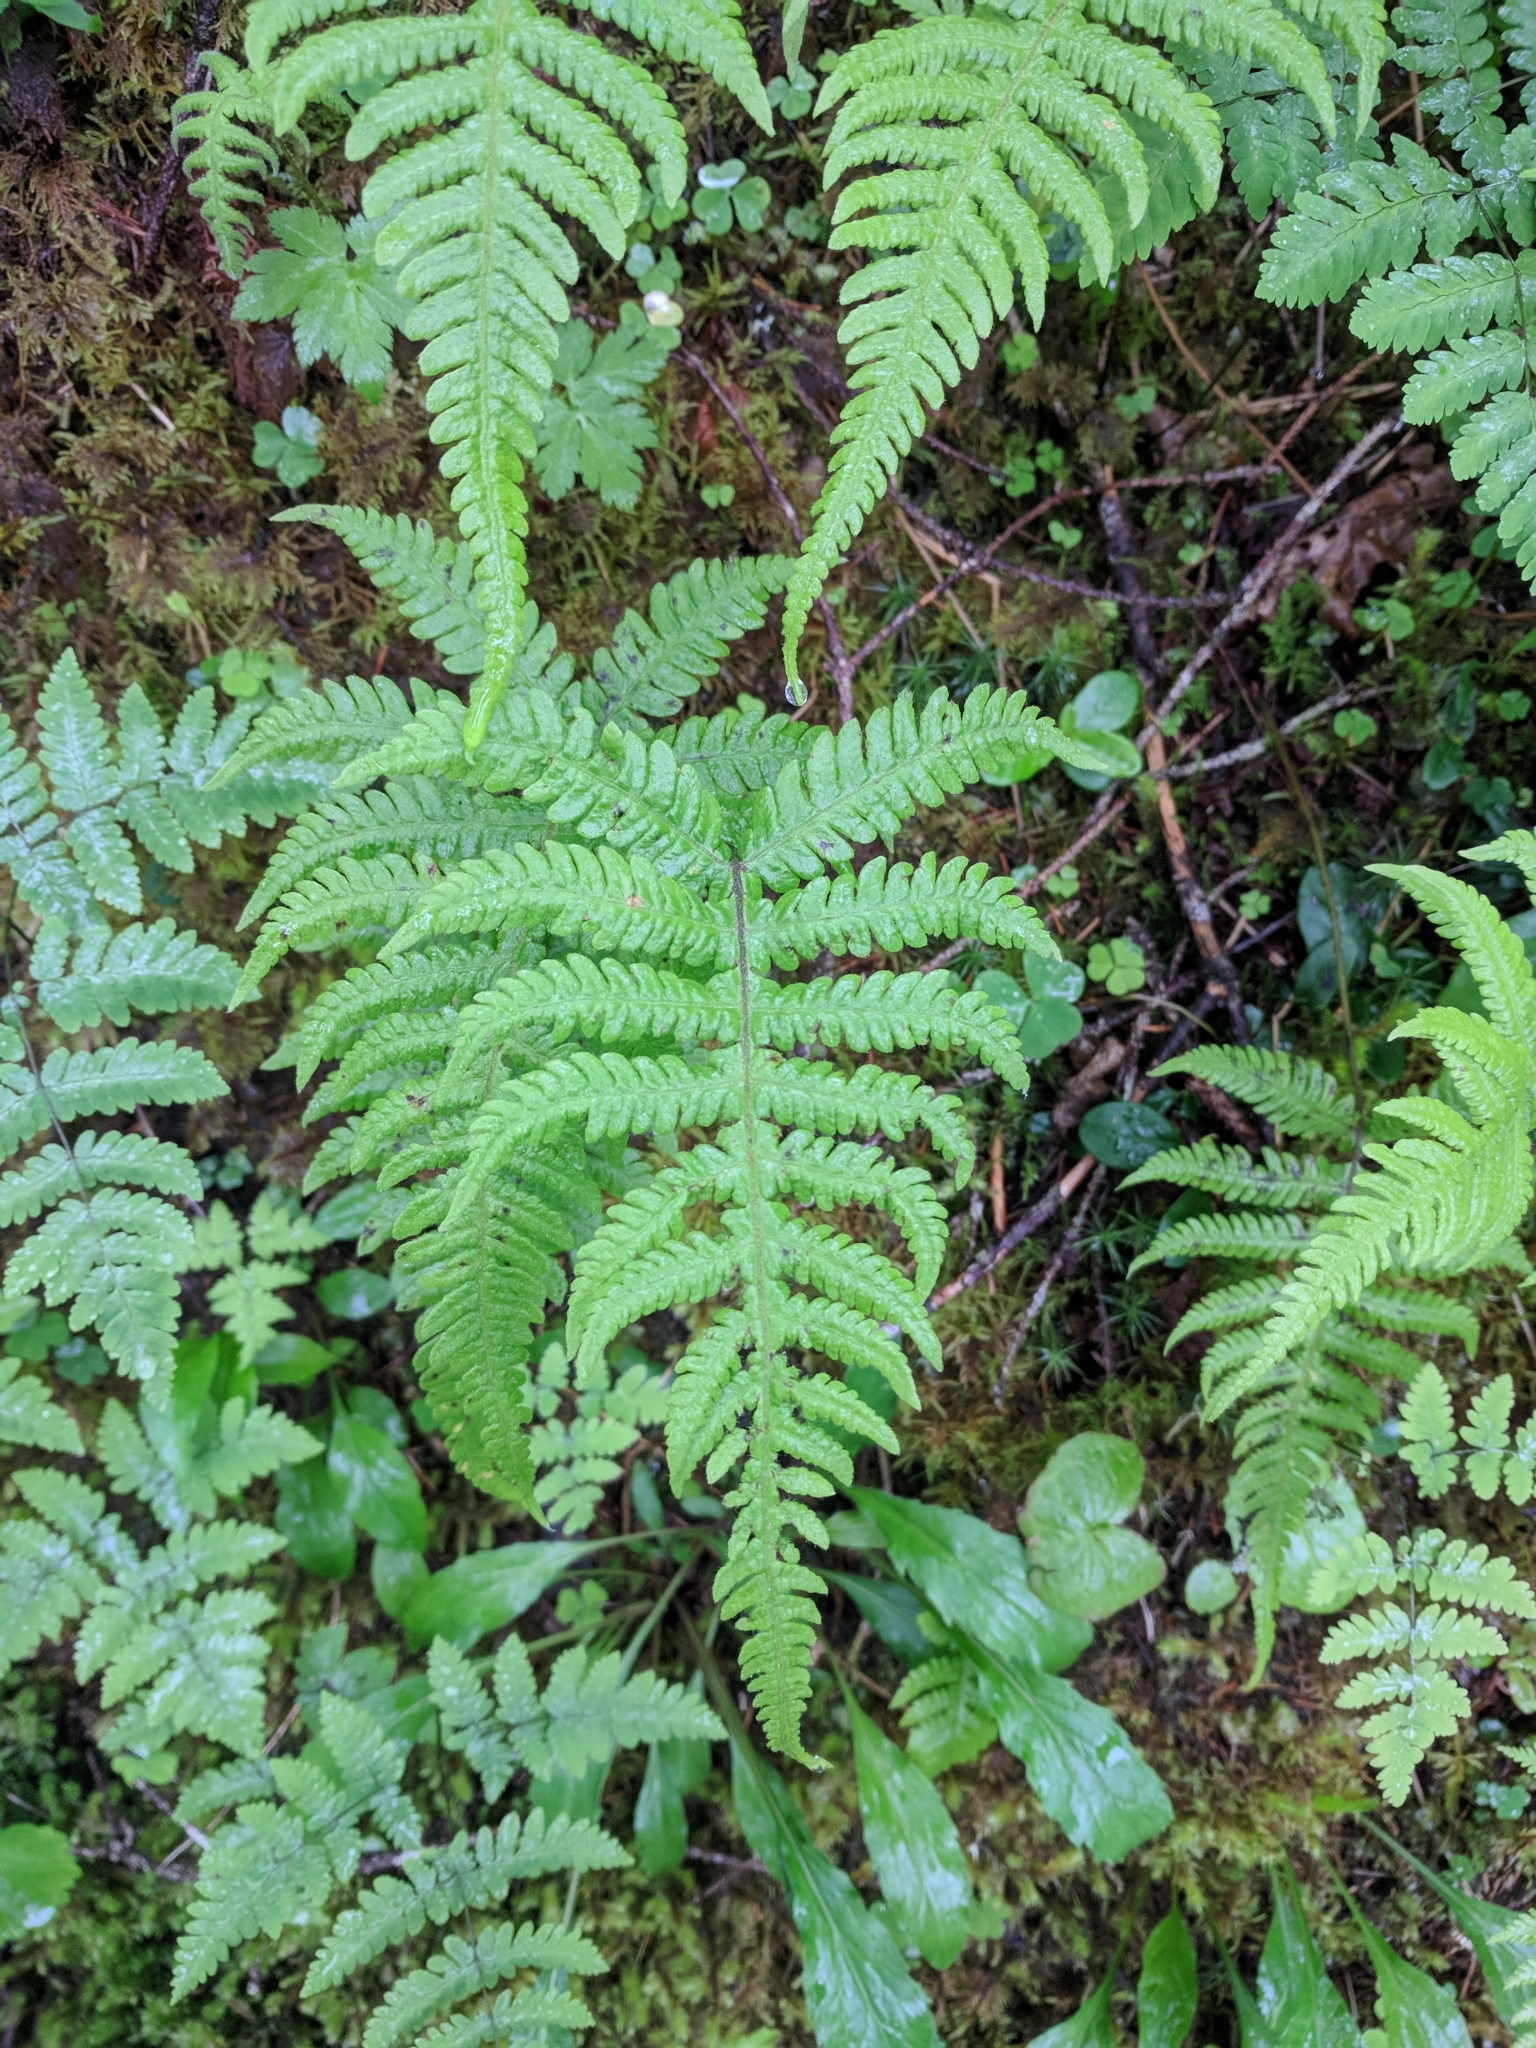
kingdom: Plantae
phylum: Tracheophyta
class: Polypodiopsida
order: Polypodiales
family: Thelypteridaceae
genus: Phegopteris
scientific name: Phegopteris connectilis
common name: Beech fern
